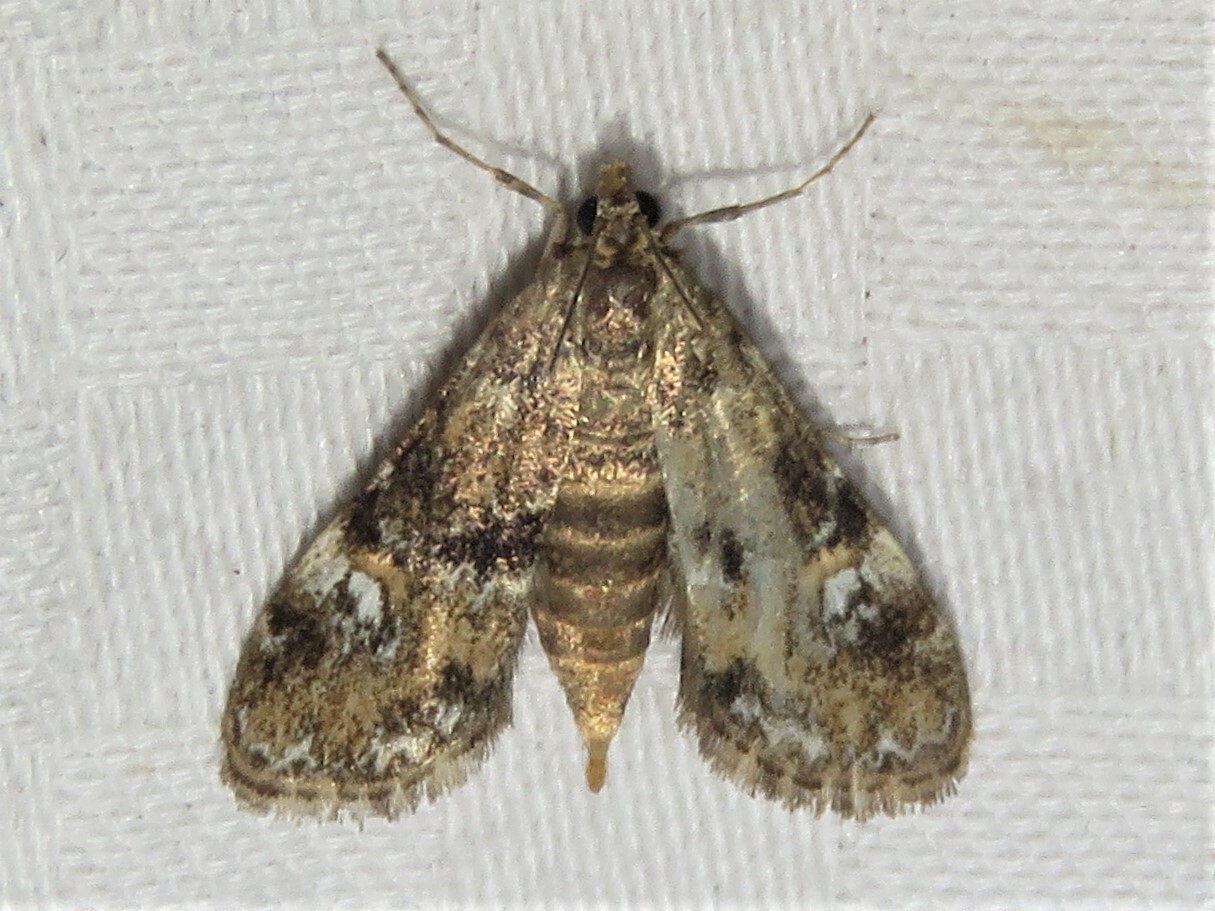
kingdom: Animalia
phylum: Arthropoda
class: Insecta
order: Lepidoptera
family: Crambidae
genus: Elophila
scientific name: Elophila obliteralis
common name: Waterlily leafcutter moth
